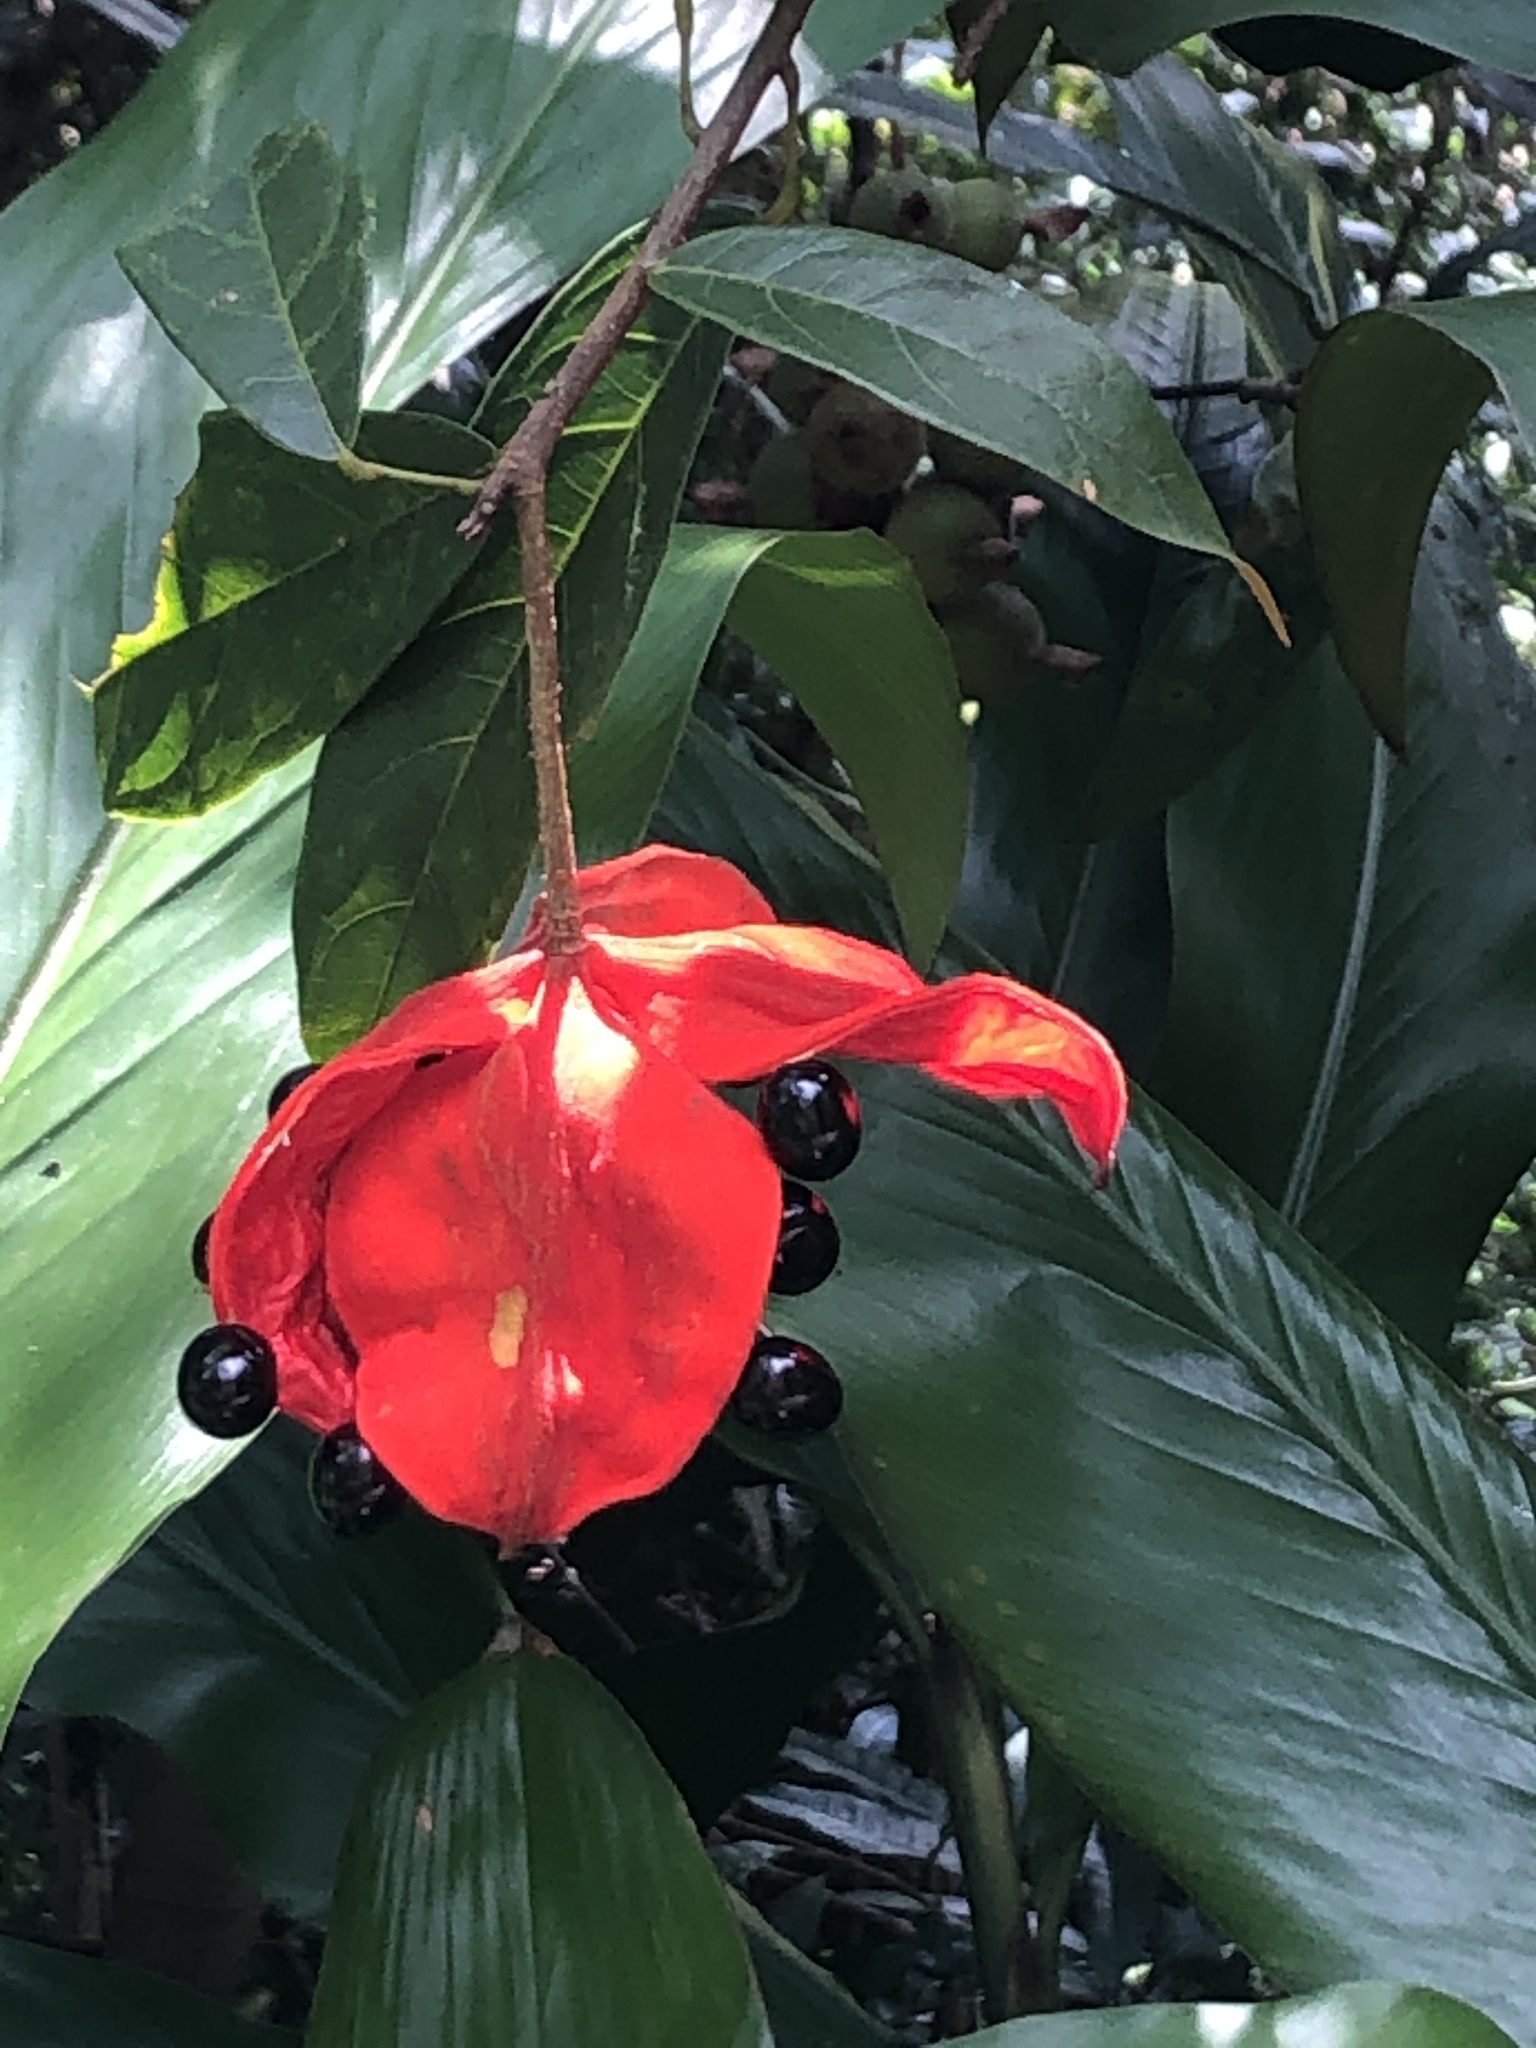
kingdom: Plantae
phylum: Tracheophyta
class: Magnoliopsida
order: Malvales
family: Malvaceae
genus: Sterculia
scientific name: Sterculia lanceolata
